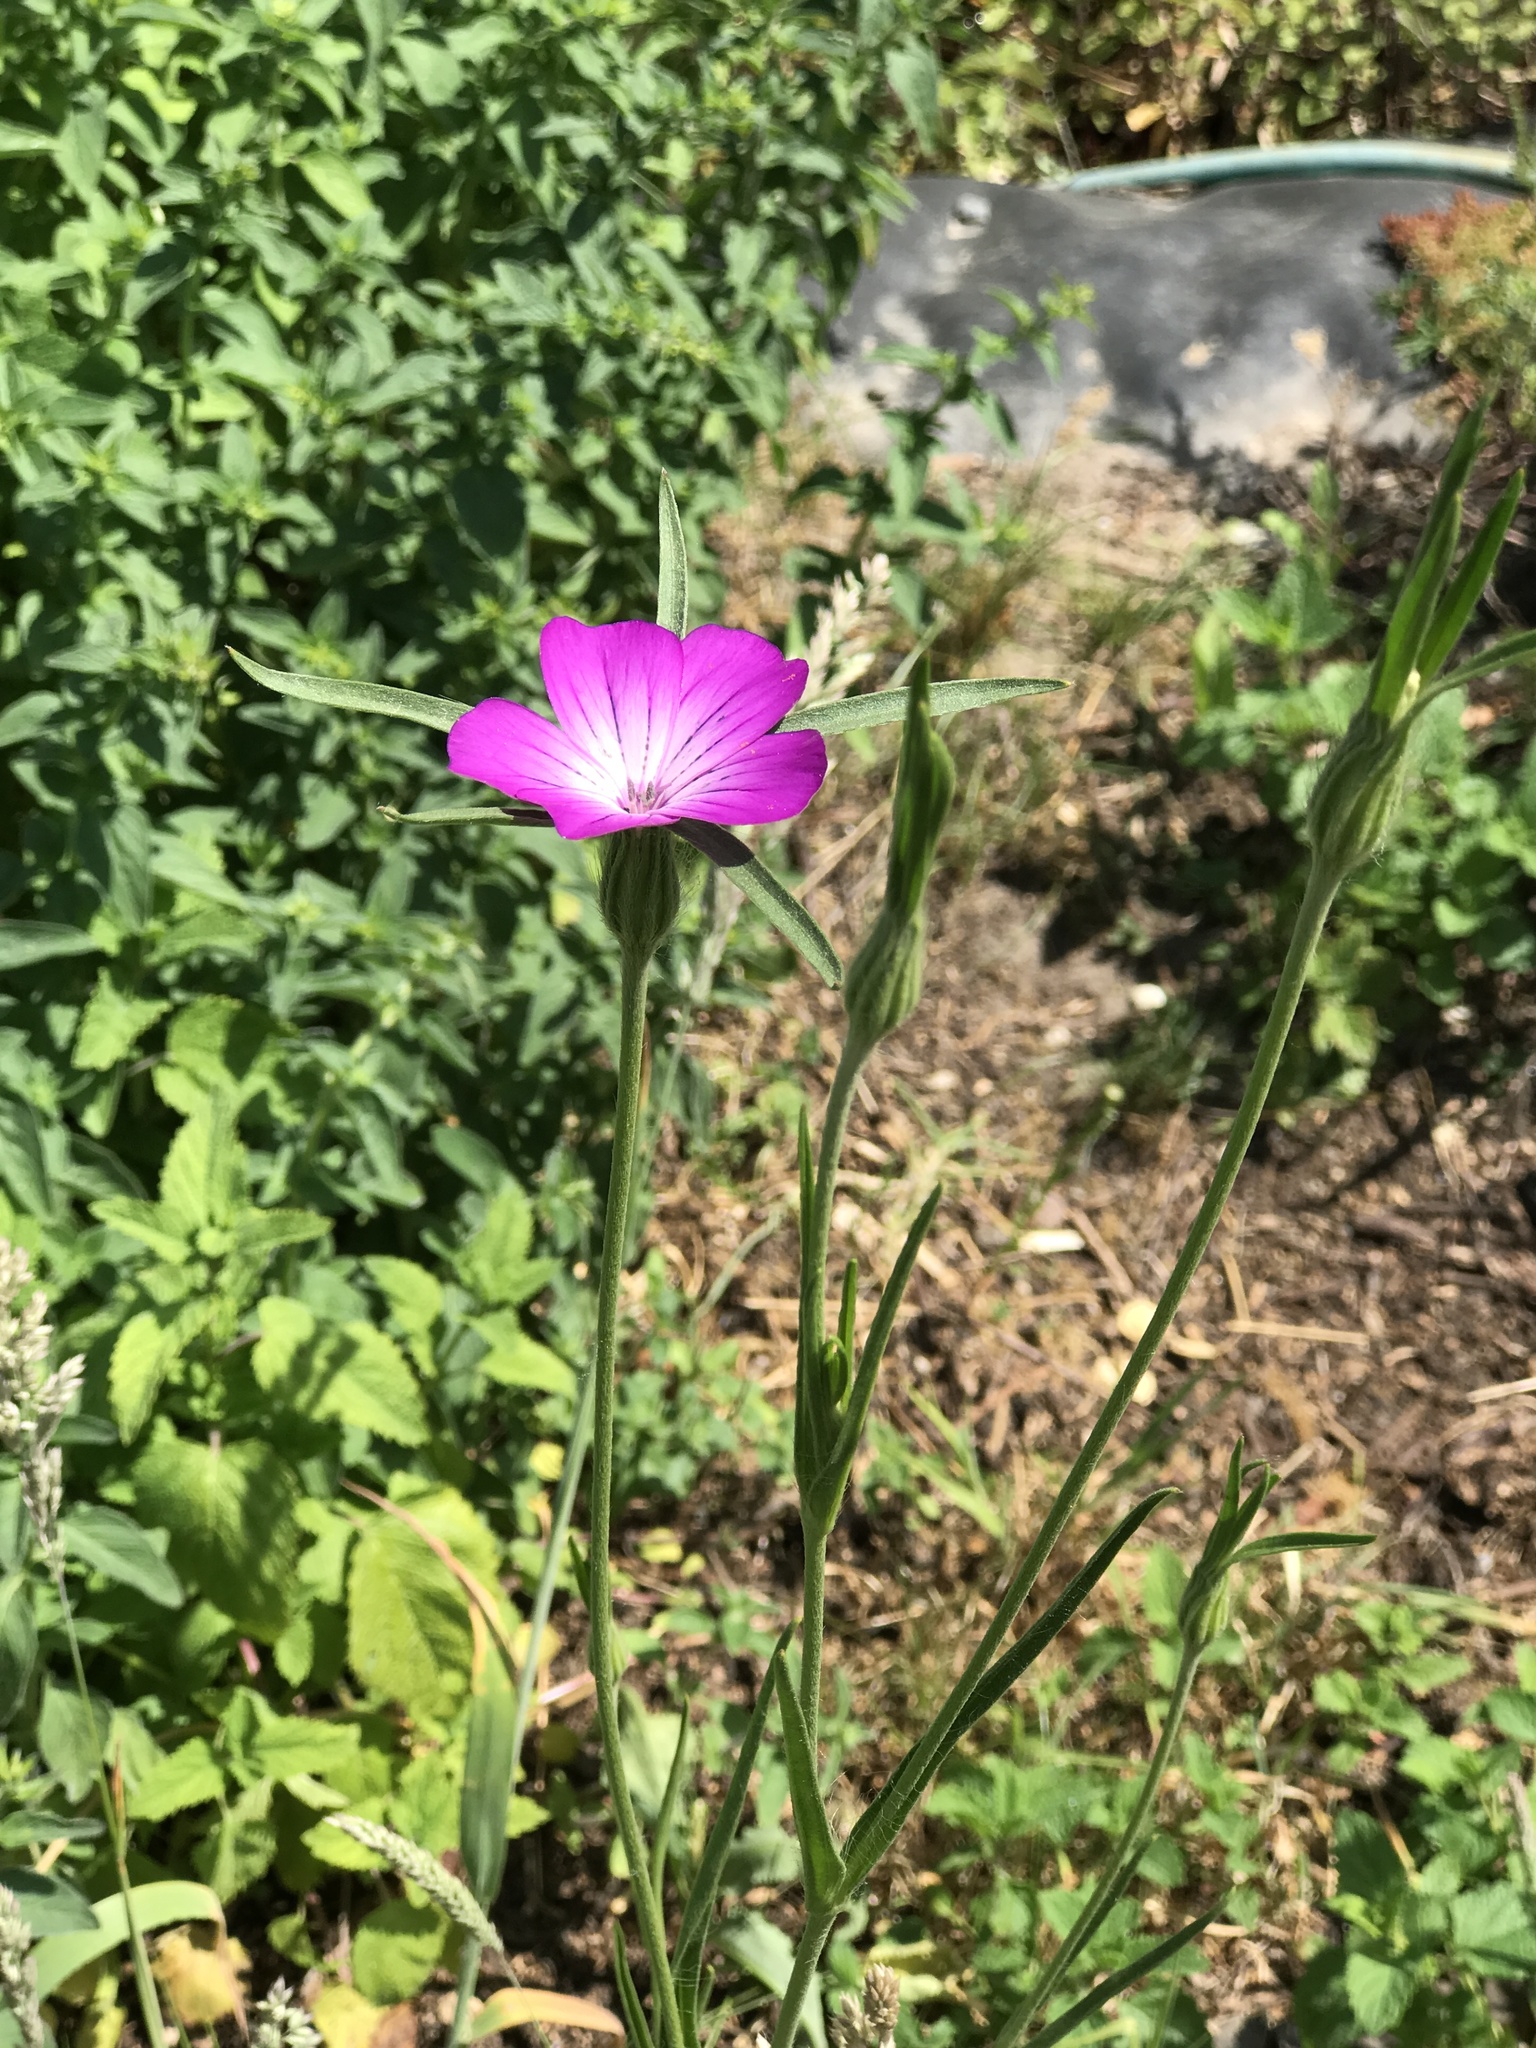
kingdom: Plantae
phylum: Tracheophyta
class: Magnoliopsida
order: Caryophyllales
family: Caryophyllaceae
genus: Agrostemma
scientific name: Agrostemma githago
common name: Common corncockle
